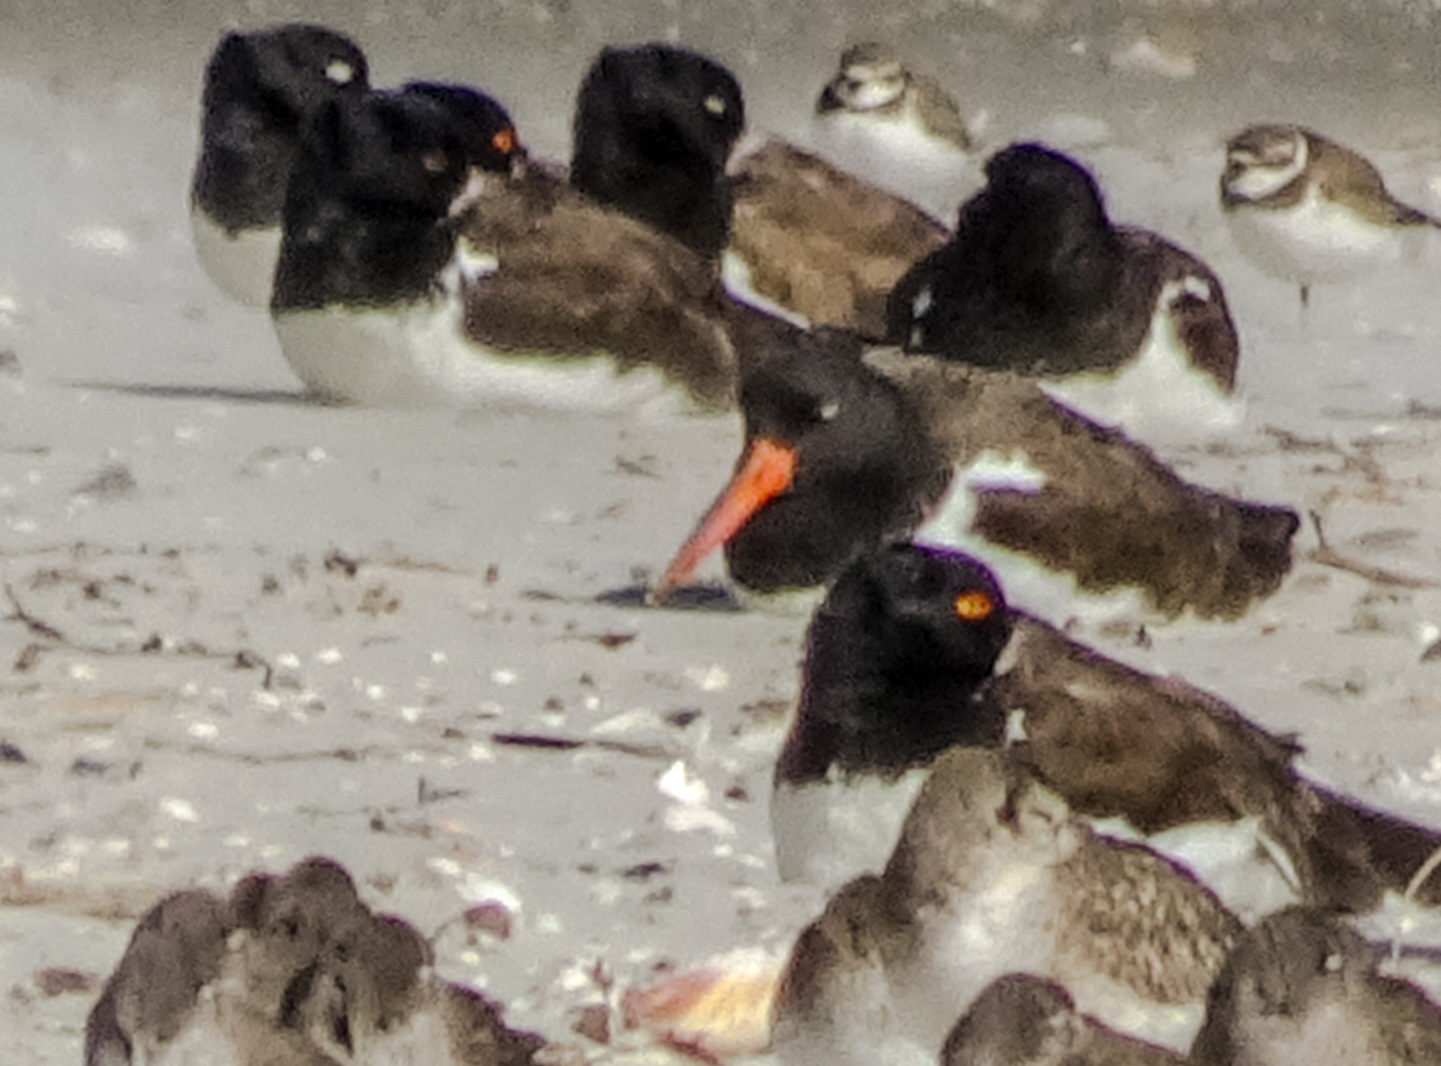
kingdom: Animalia
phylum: Chordata
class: Aves
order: Charadriiformes
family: Haematopodidae
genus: Haematopus
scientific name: Haematopus palliatus
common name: American oystercatcher
